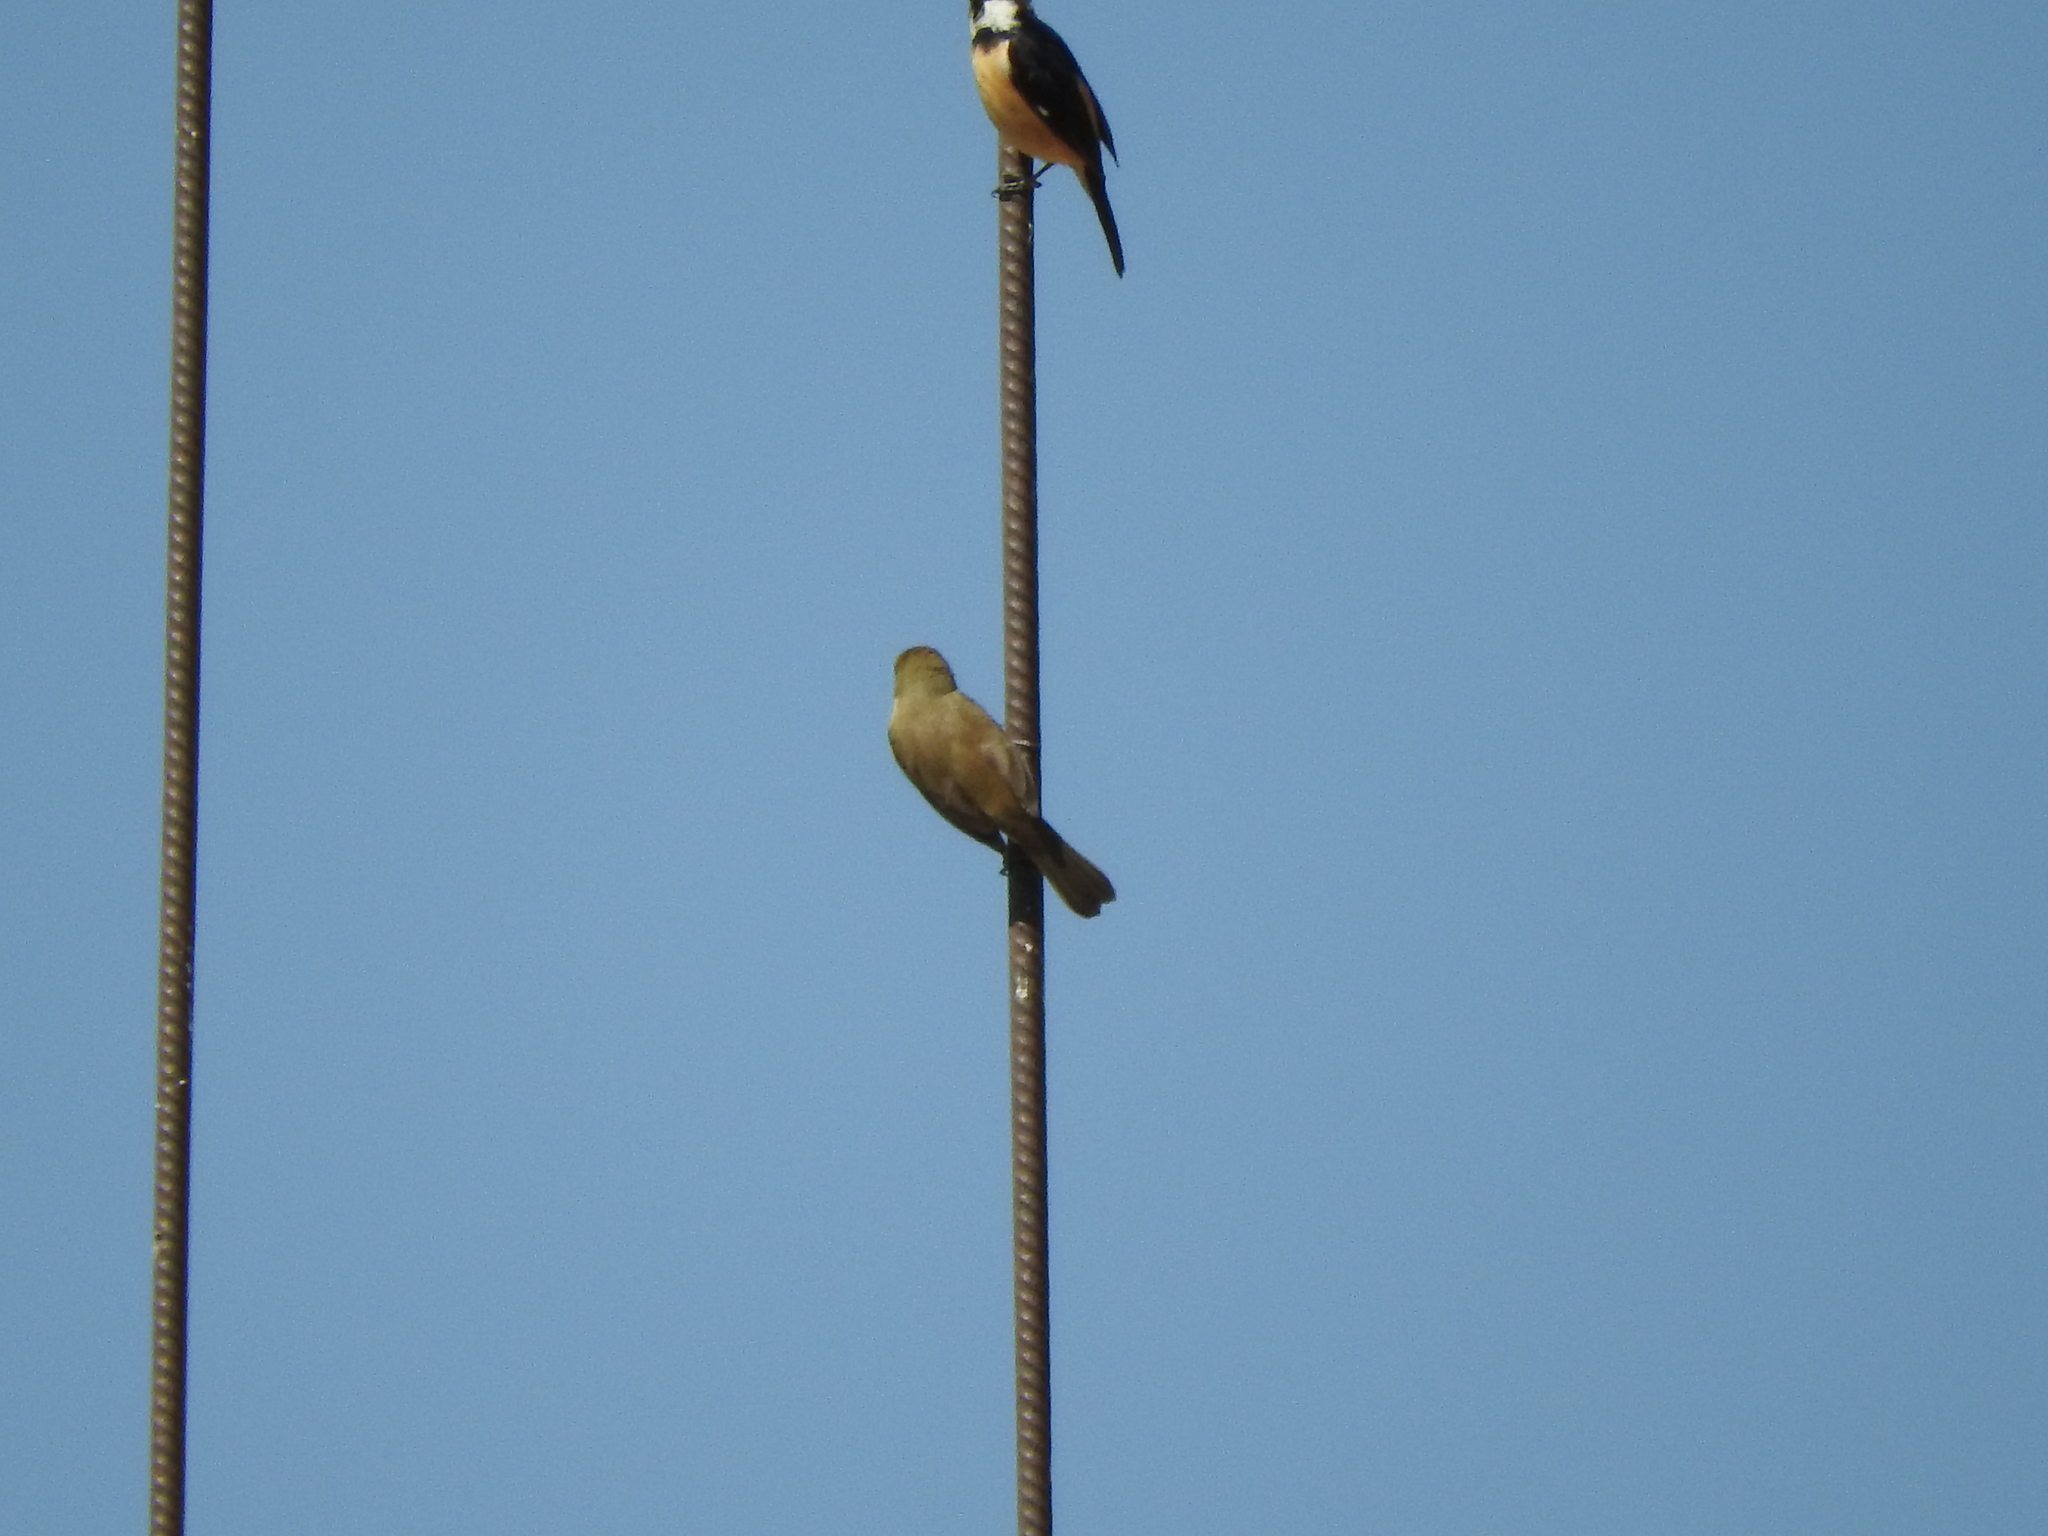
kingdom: Animalia
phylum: Chordata
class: Aves
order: Passeriformes
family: Thraupidae
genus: Sporophila
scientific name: Sporophila torqueola
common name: White-collared seedeater
